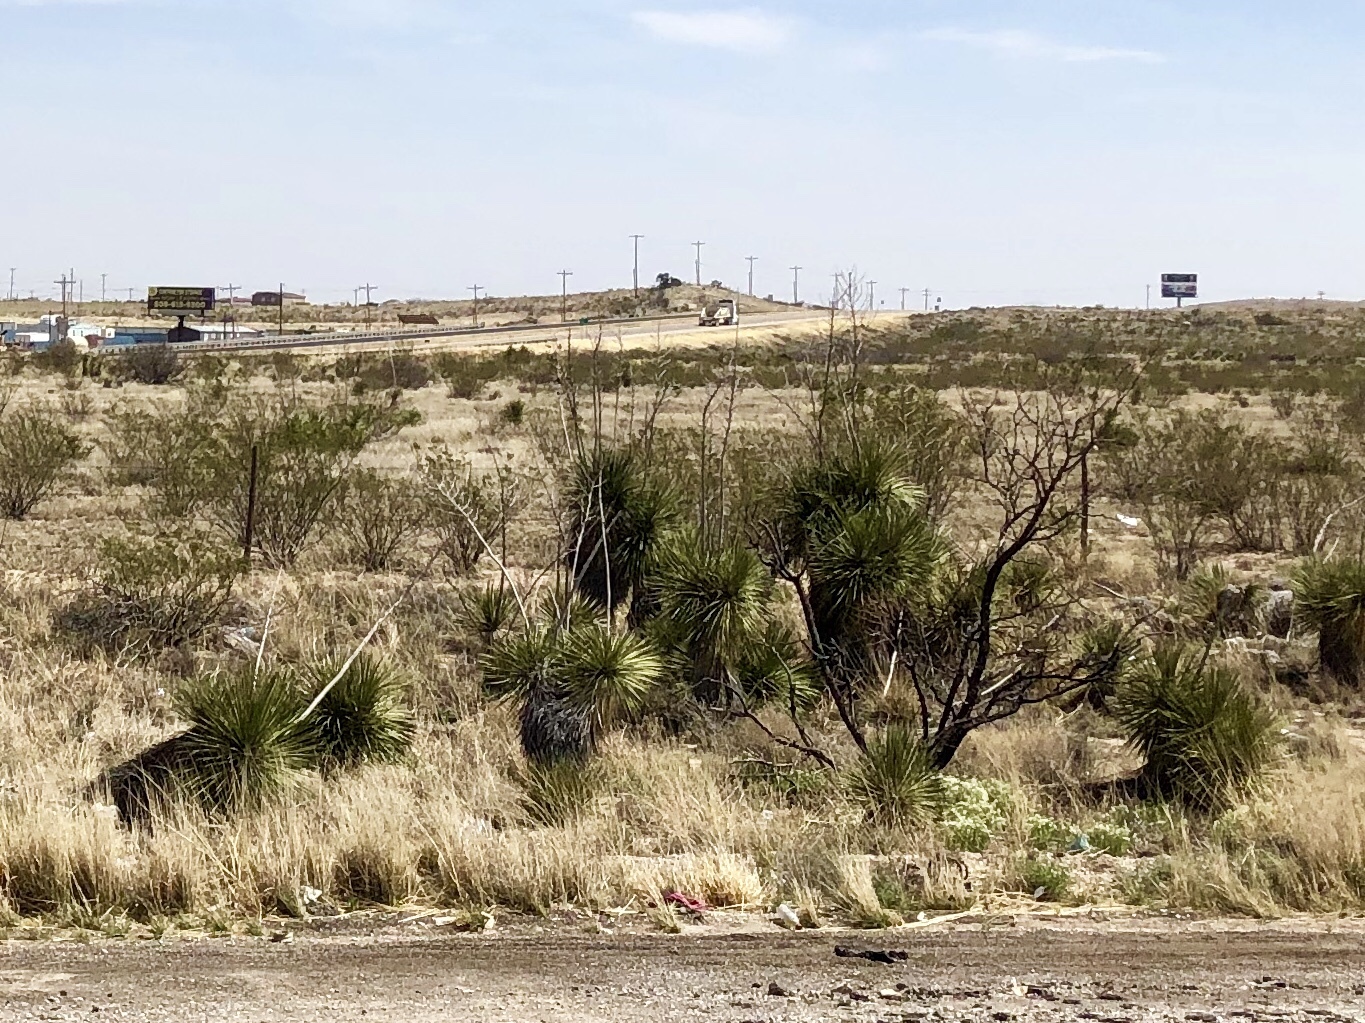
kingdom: Plantae
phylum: Tracheophyta
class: Liliopsida
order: Asparagales
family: Asparagaceae
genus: Yucca
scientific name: Yucca elata
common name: Palmella
